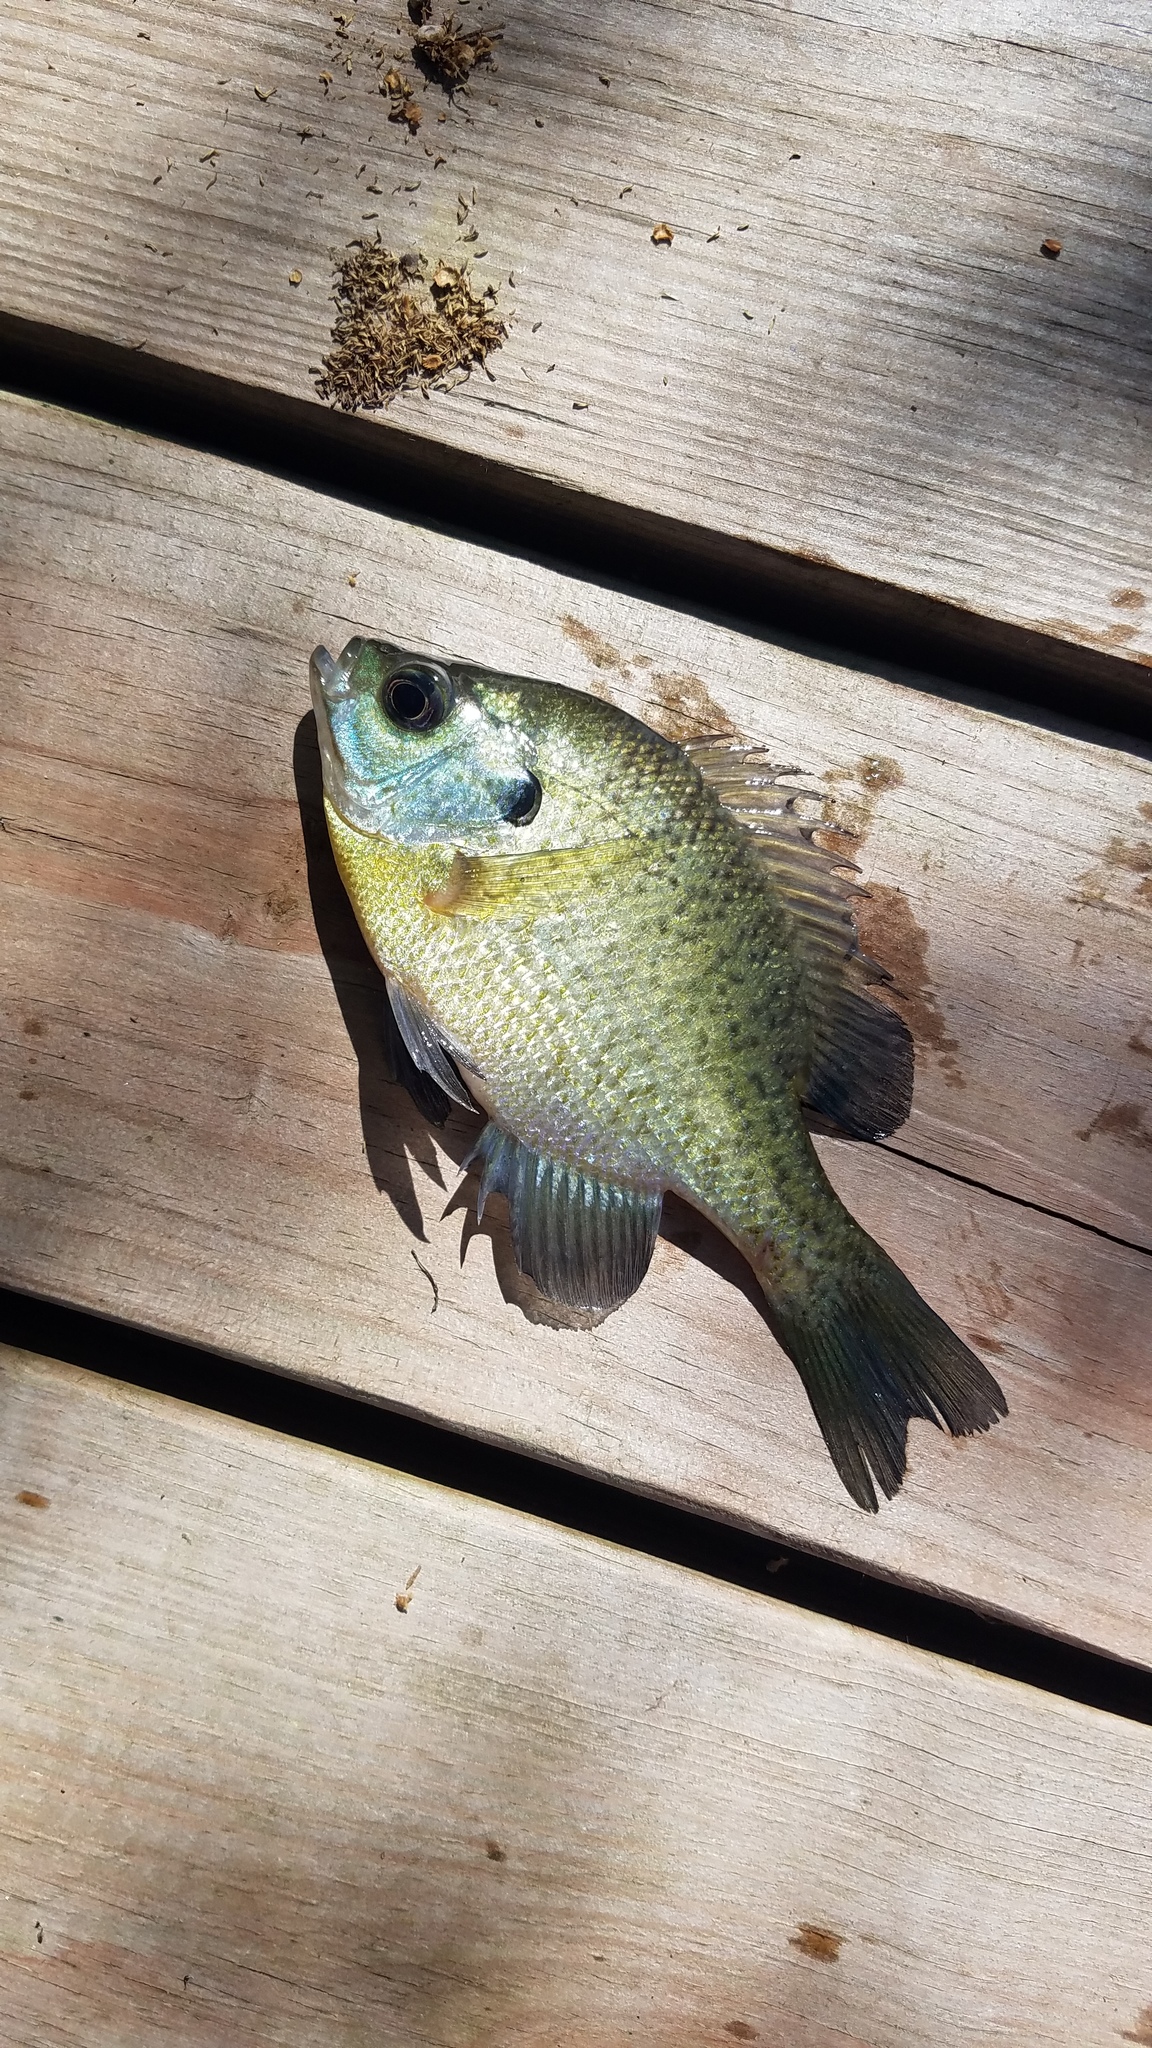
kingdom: Animalia
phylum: Chordata
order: Perciformes
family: Centrarchidae
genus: Lepomis
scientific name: Lepomis macrochirus
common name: Bluegill
